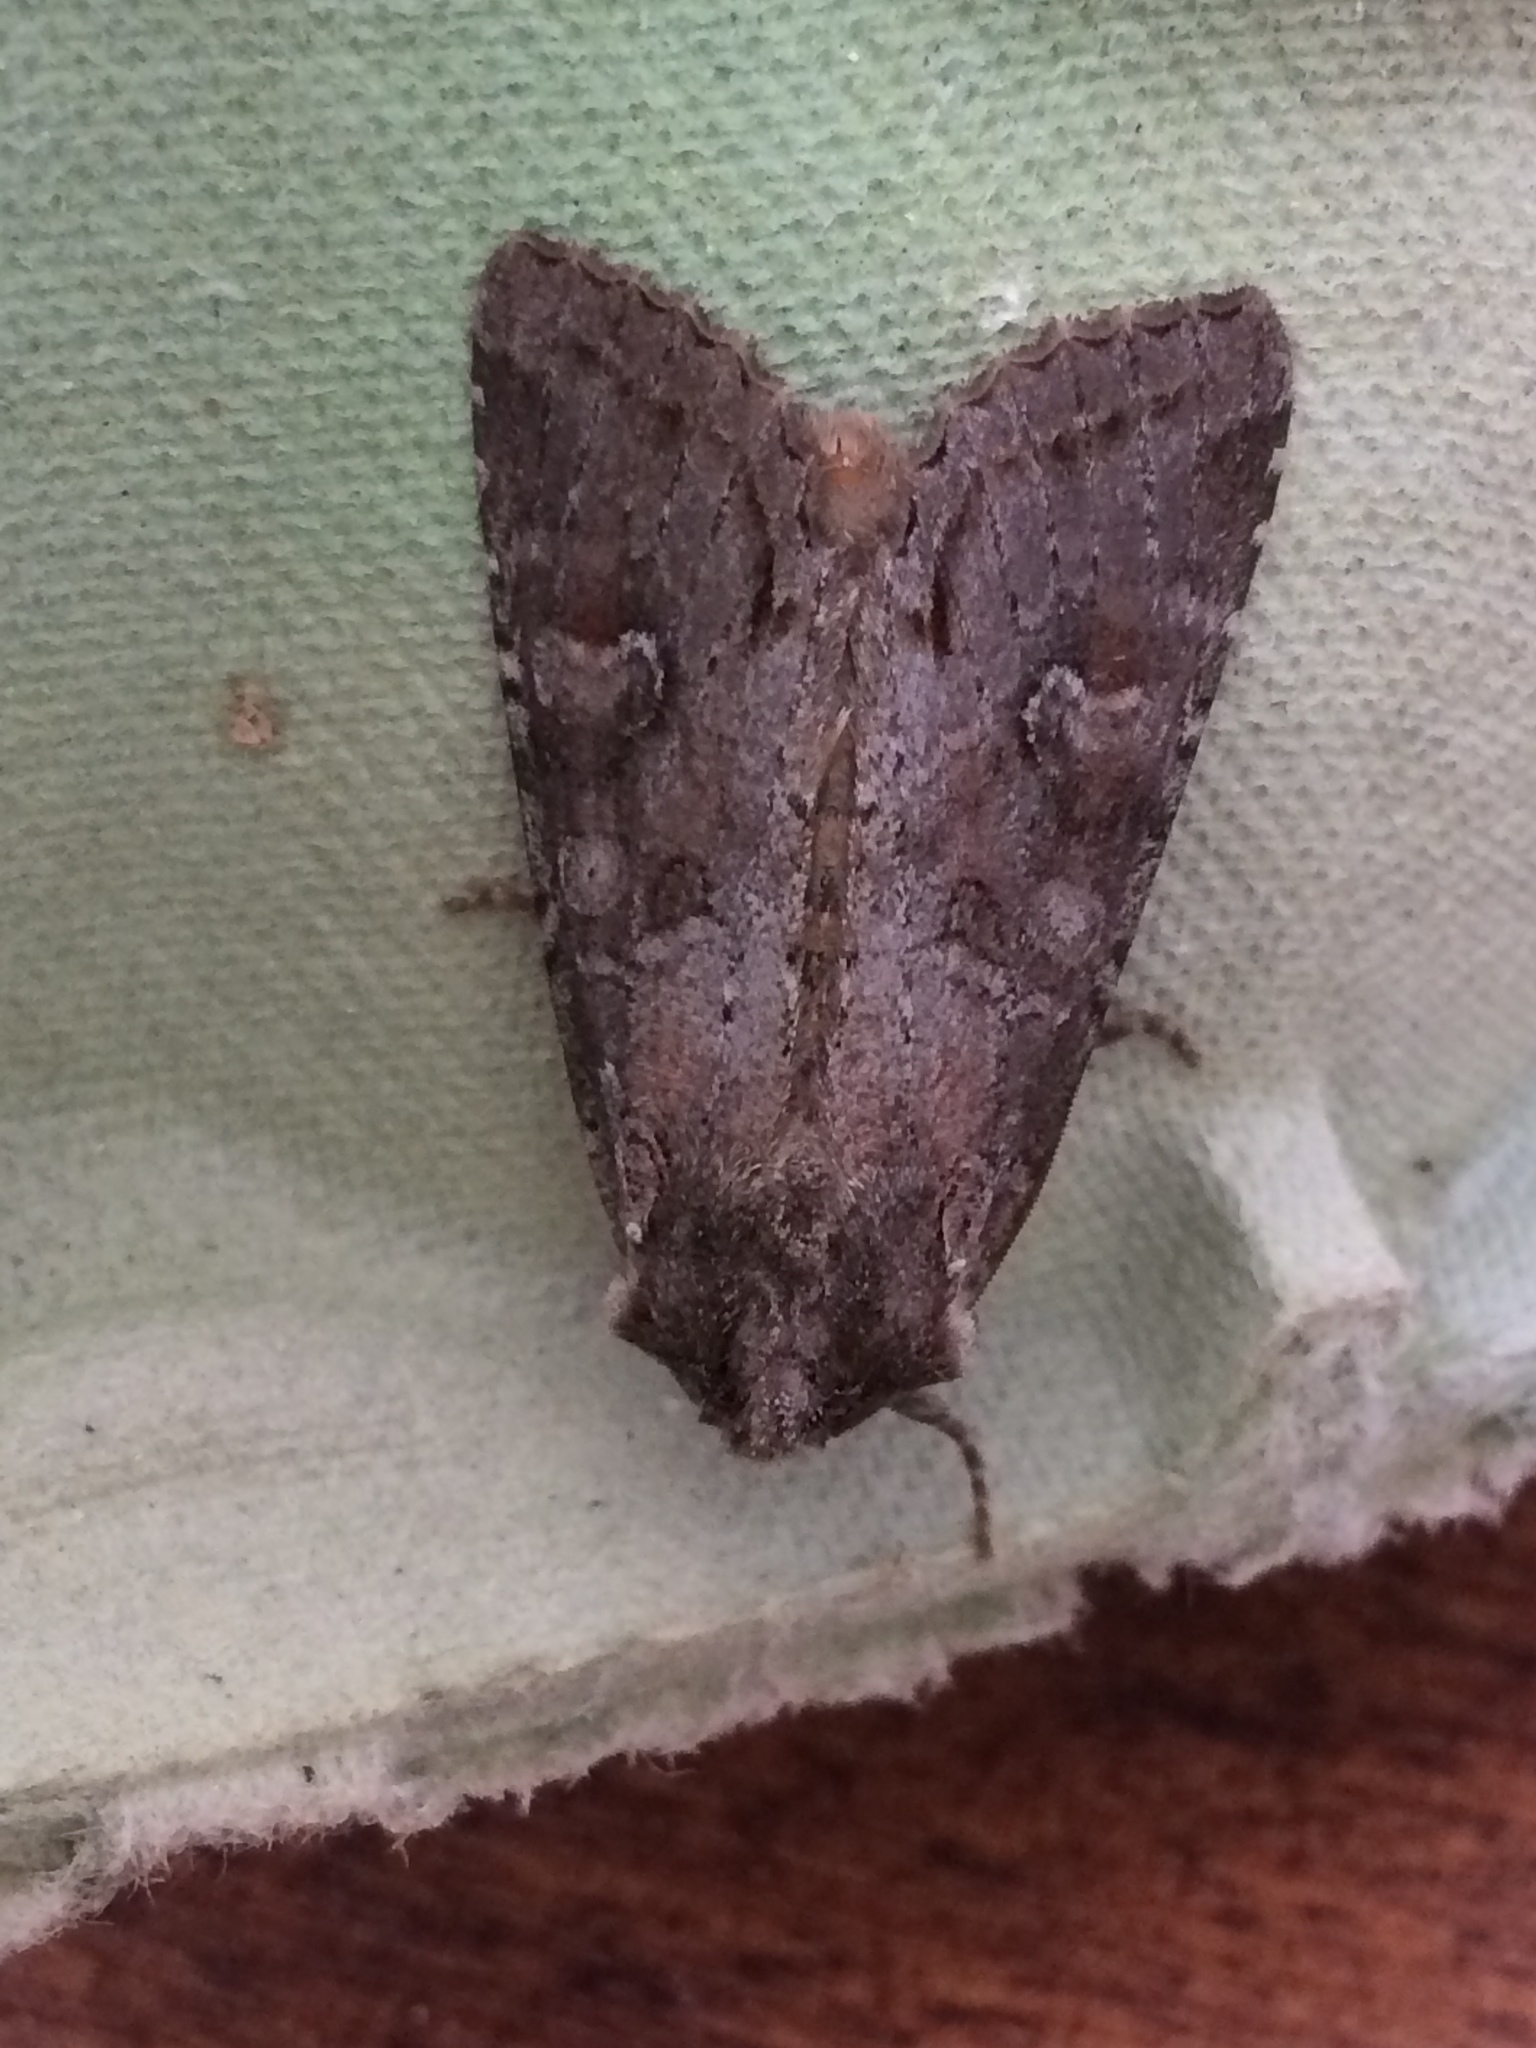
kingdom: Animalia
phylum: Arthropoda
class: Insecta
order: Lepidoptera
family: Noctuidae
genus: Polia
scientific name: Polia bombycina
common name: Pale shining brown
